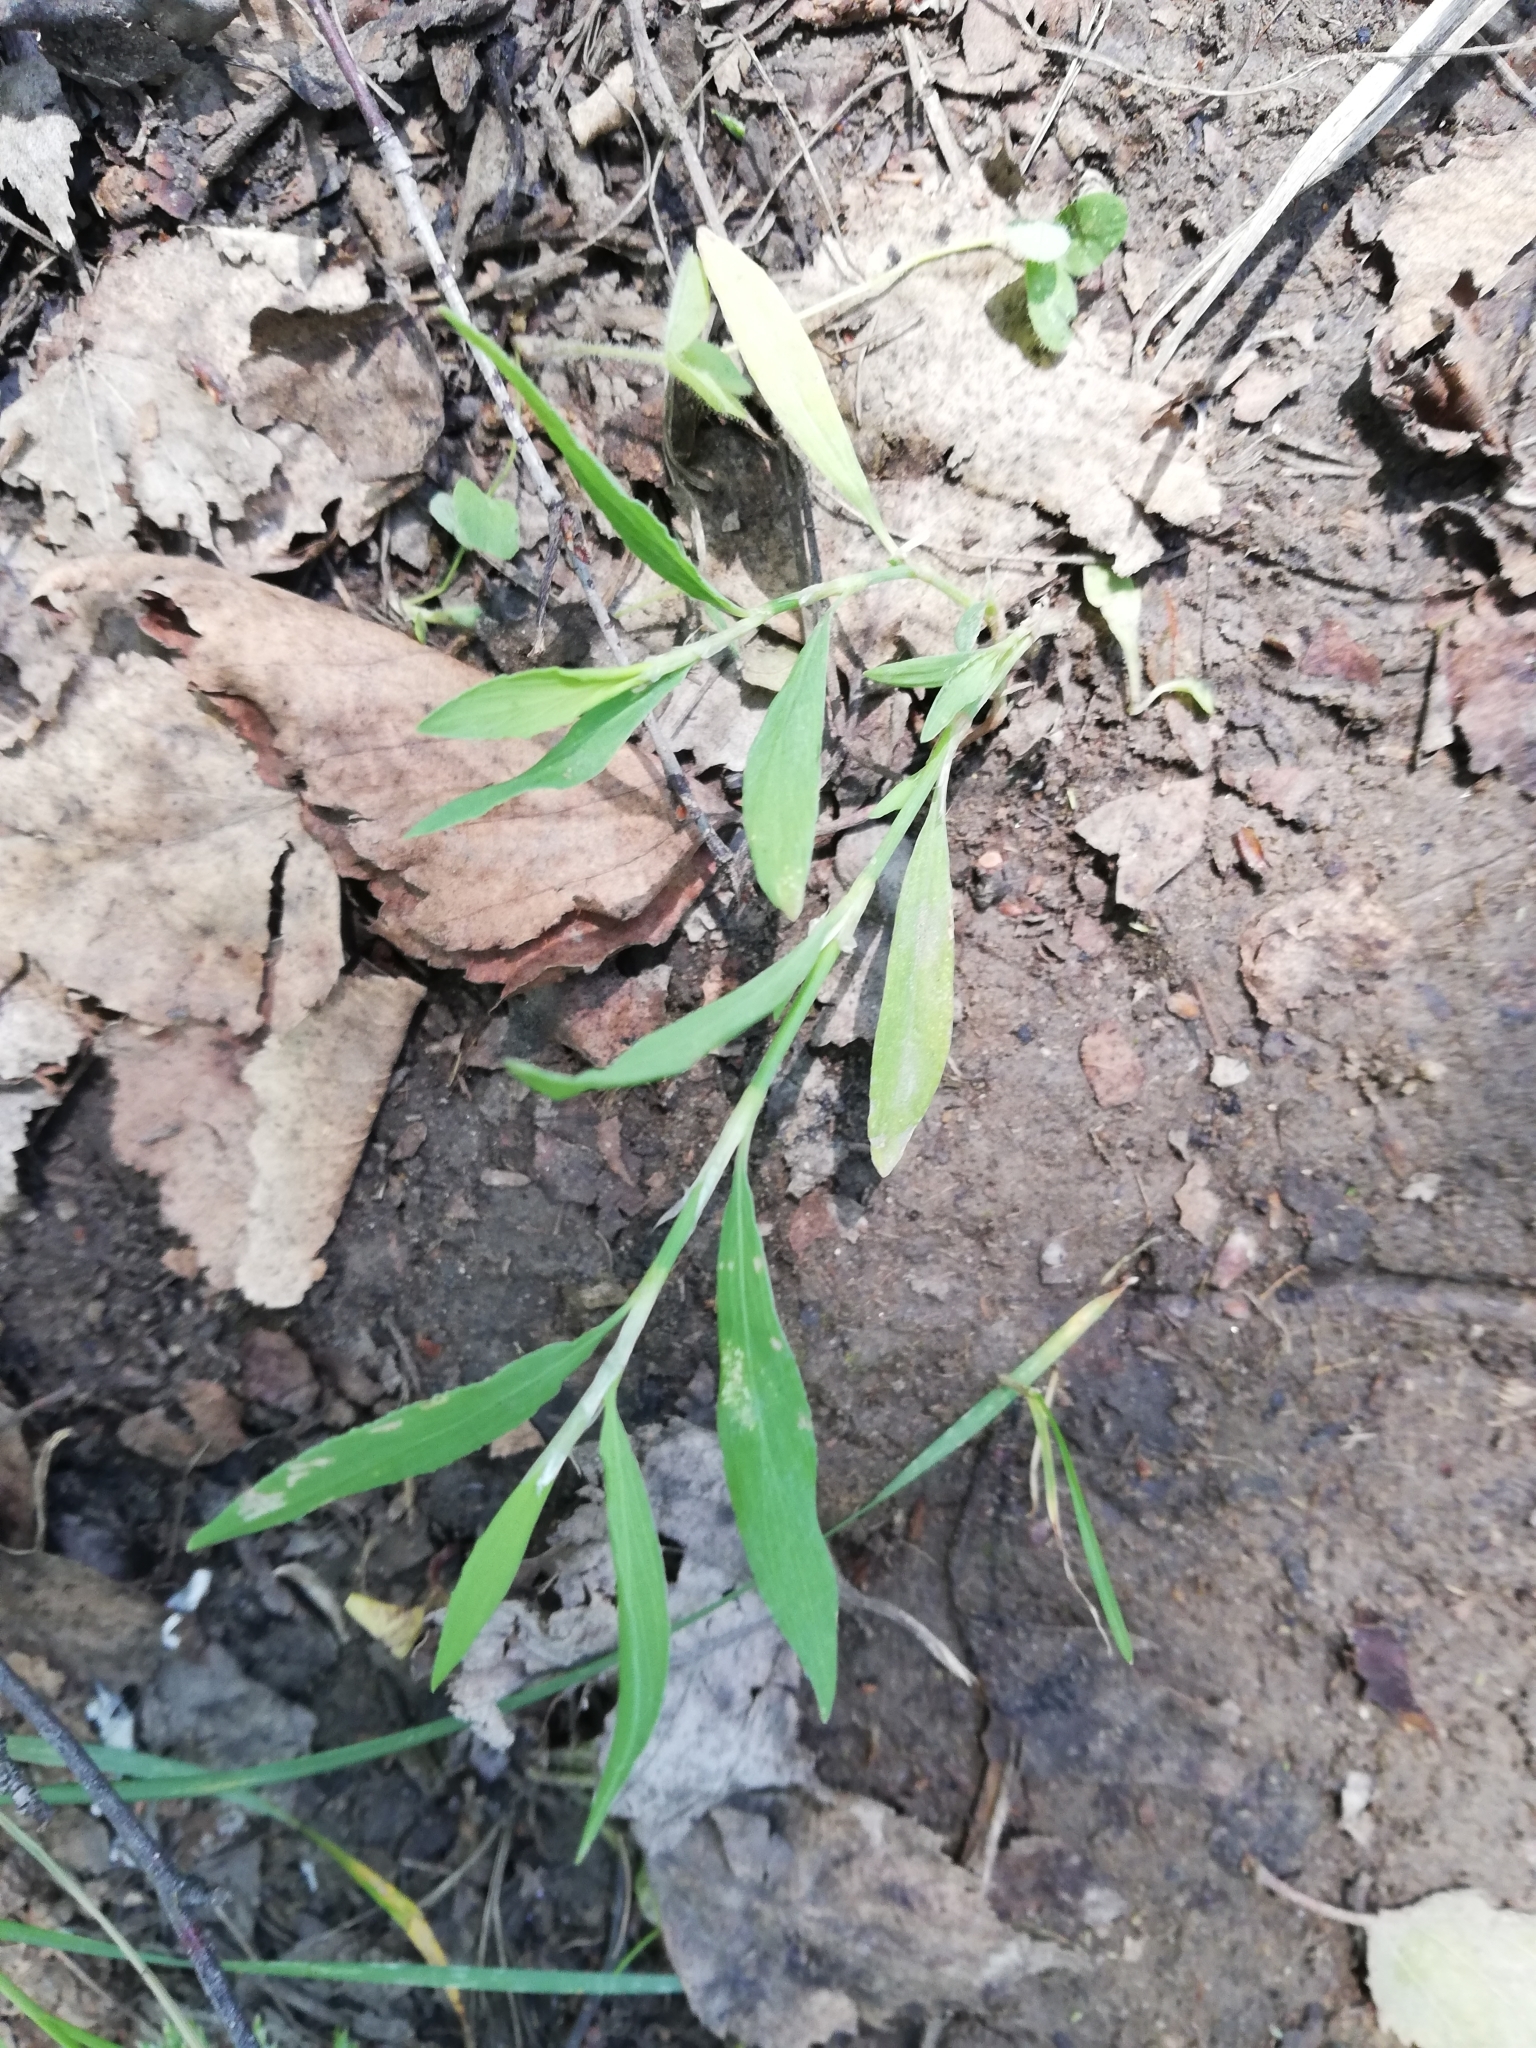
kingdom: Plantae
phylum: Tracheophyta
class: Magnoliopsida
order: Caryophyllales
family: Polygonaceae
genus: Polygonum
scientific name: Polygonum aviculare
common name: Prostrate knotweed
